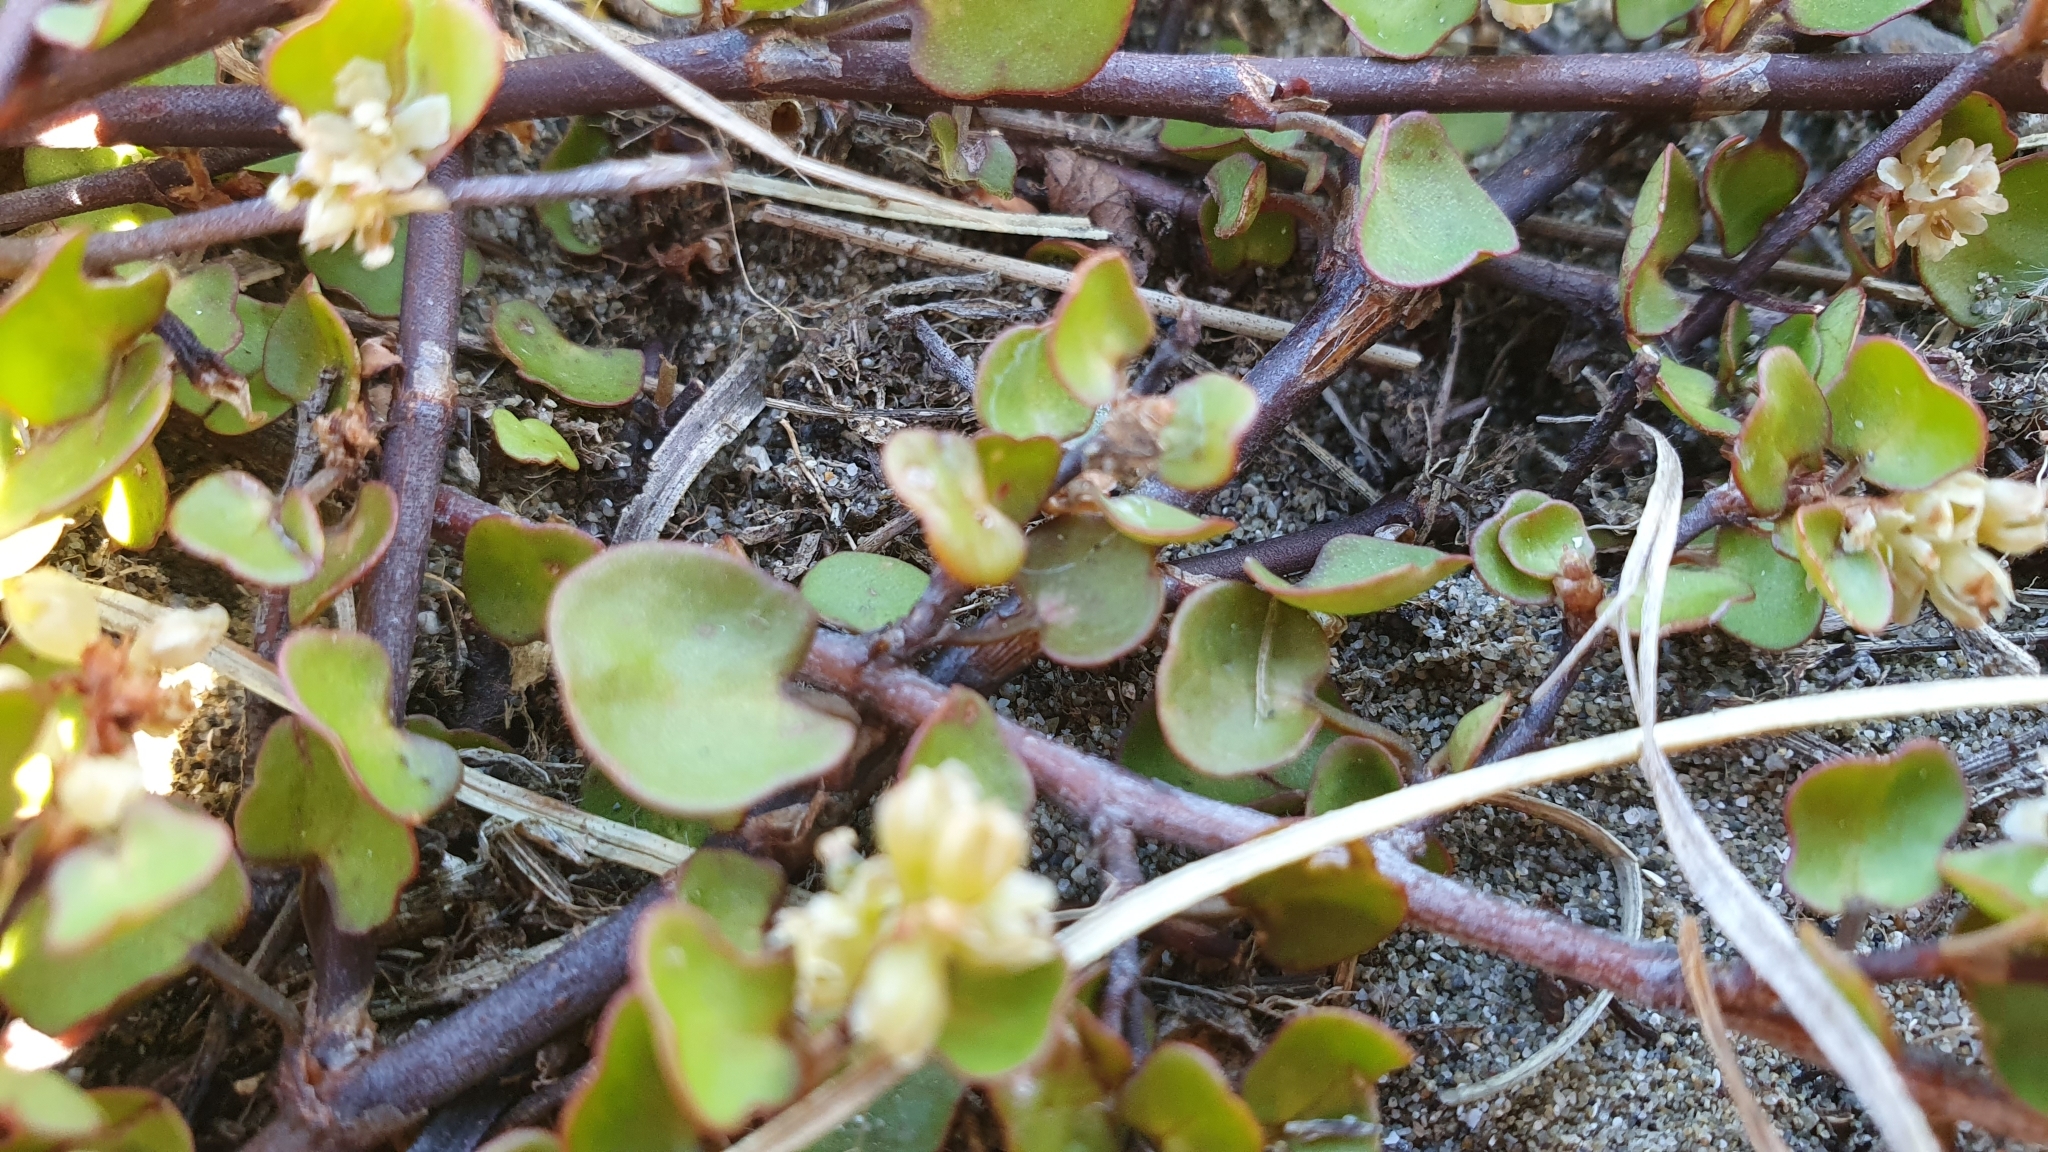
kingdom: Plantae
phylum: Tracheophyta
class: Magnoliopsida
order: Caryophyllales
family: Polygonaceae
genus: Muehlenbeckia
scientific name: Muehlenbeckia complexa
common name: Wireplant
